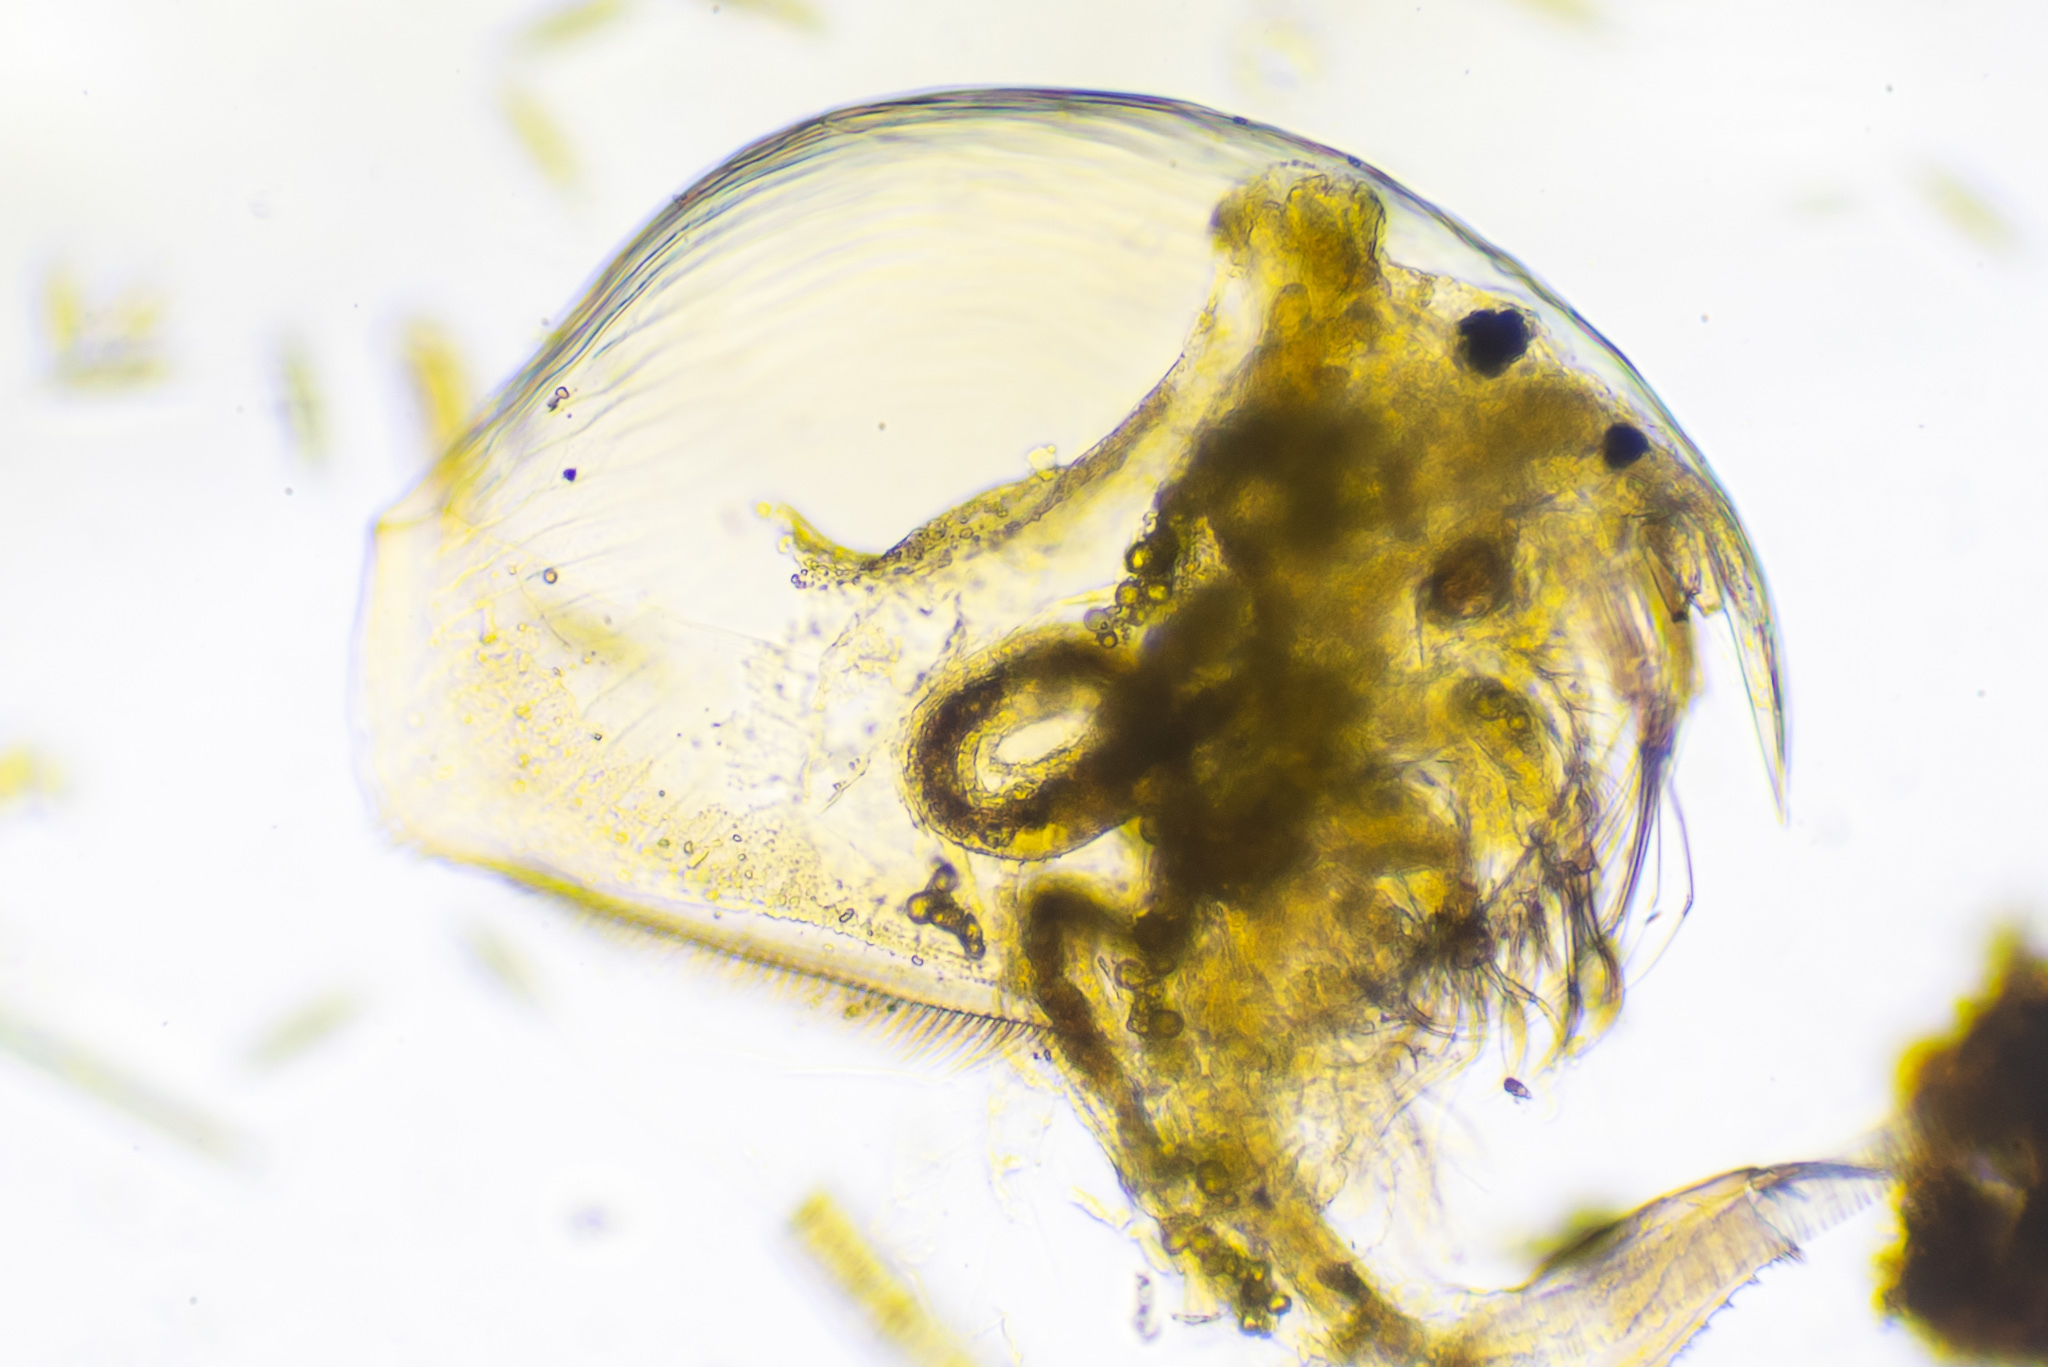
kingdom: Animalia
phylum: Arthropoda
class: Branchiopoda
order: Diplostraca
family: Chydoridae
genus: Picripleuroxus
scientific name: Picripleuroxus denticulatus
